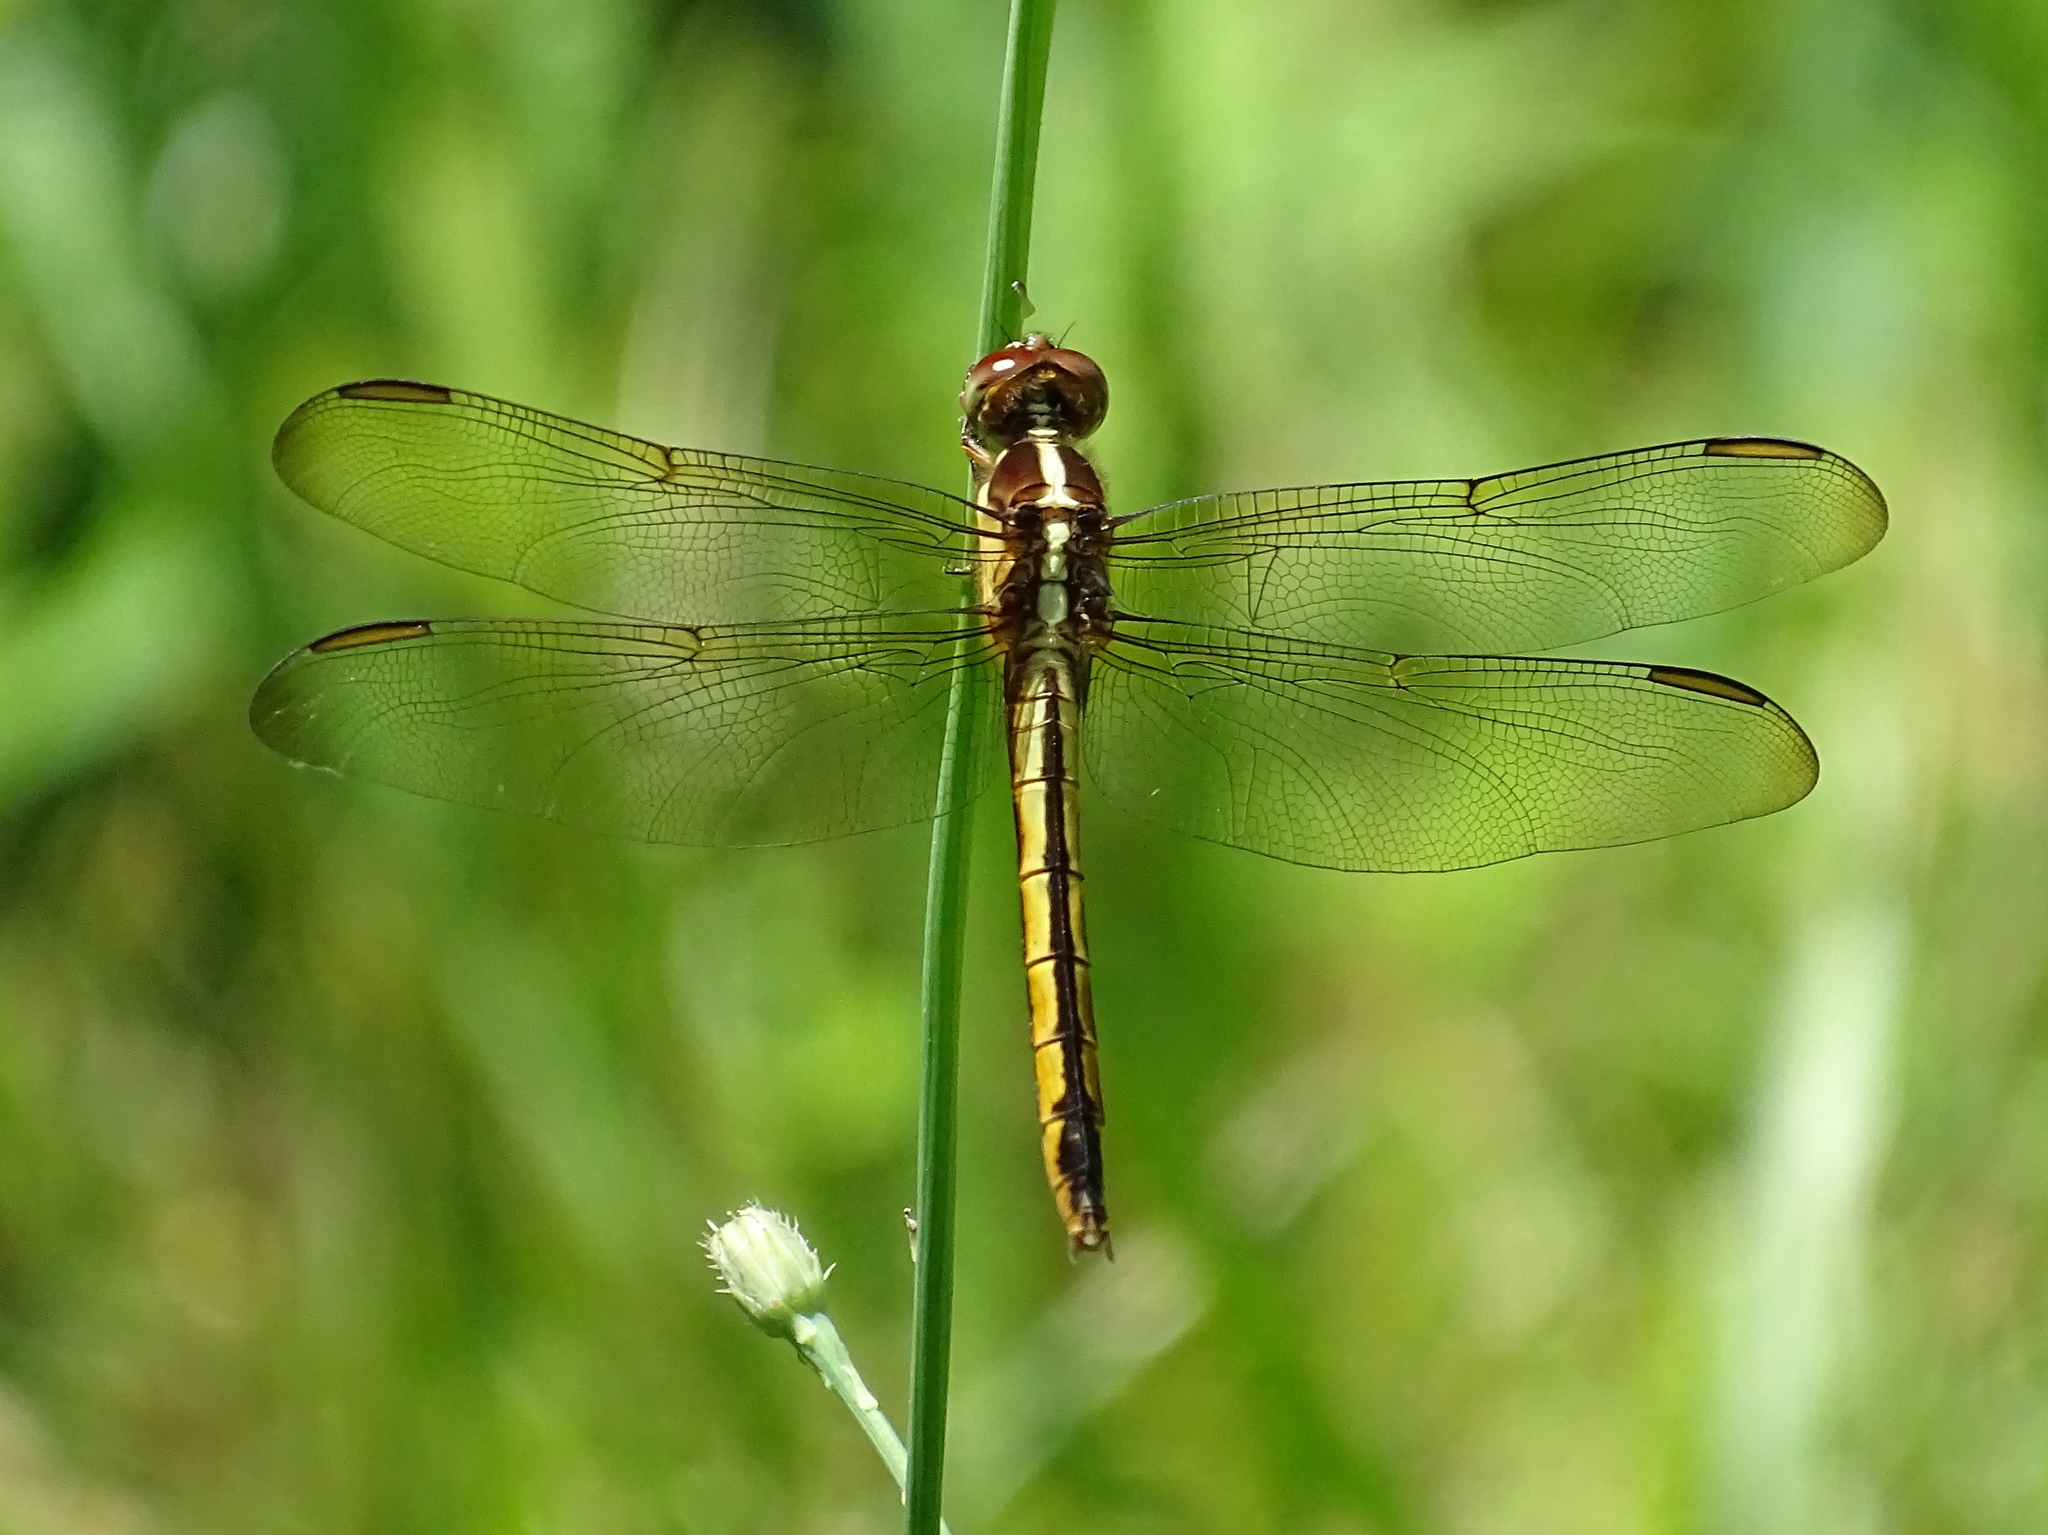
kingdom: Animalia
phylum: Arthropoda
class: Insecta
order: Odonata
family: Libellulidae
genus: Libellula
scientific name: Libellula needhami
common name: Needham's skimmer
